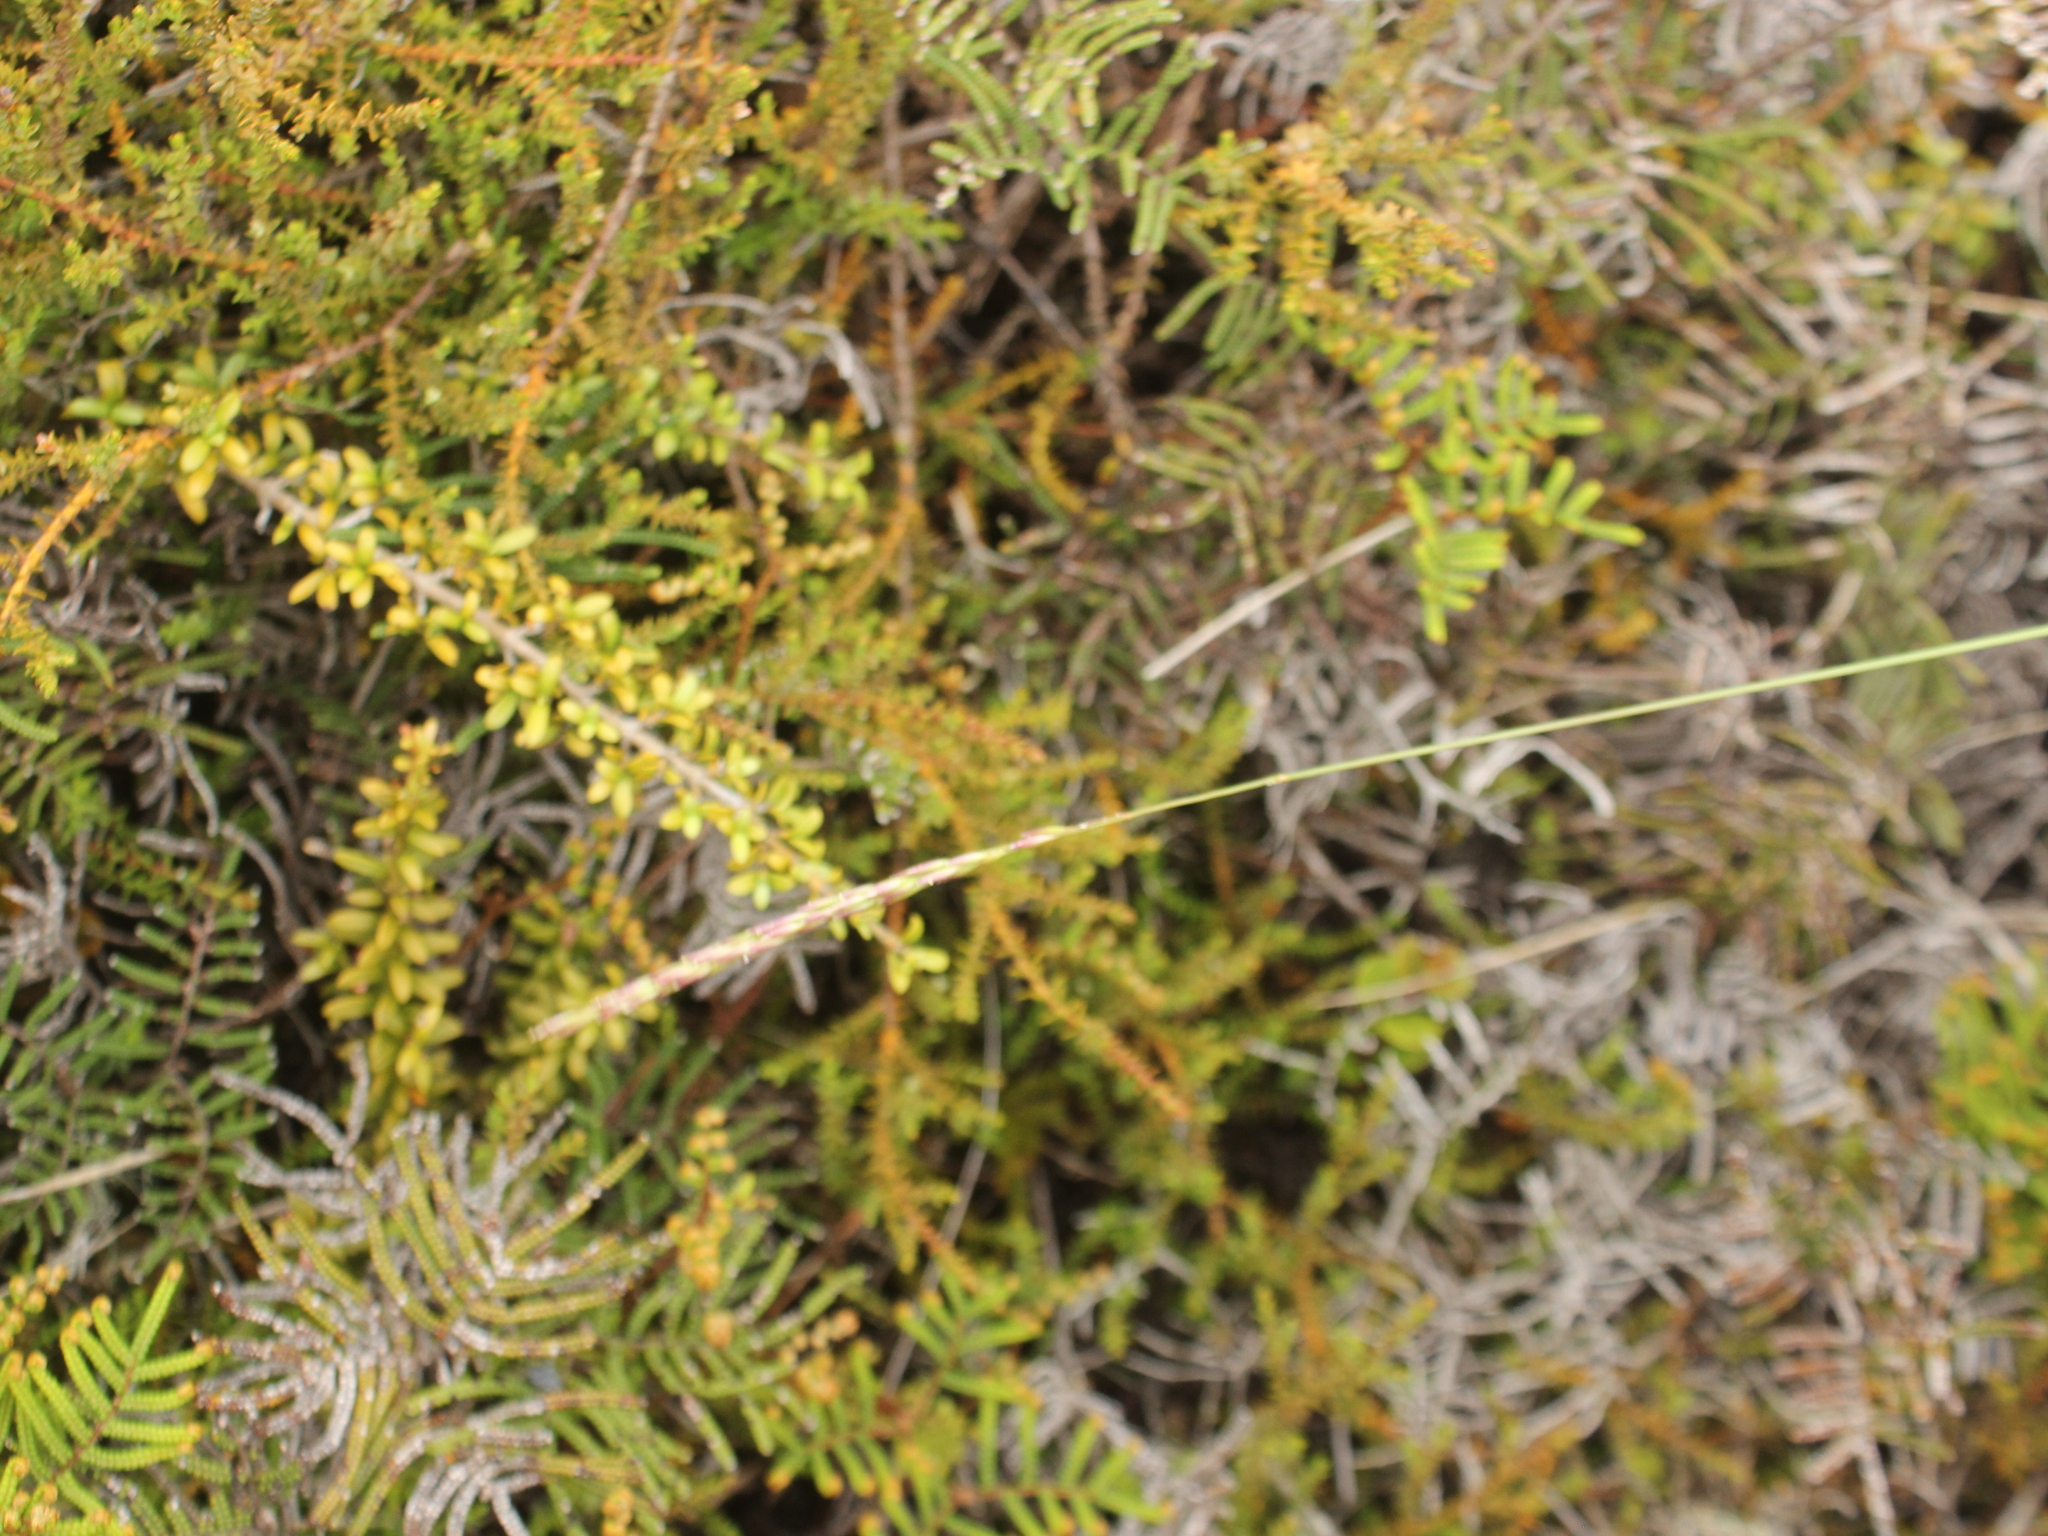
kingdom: Plantae
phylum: Tracheophyta
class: Liliopsida
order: Poales
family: Poaceae
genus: Calamagrostis
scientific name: Calamagrostis avenoides
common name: Mountain oat grass
